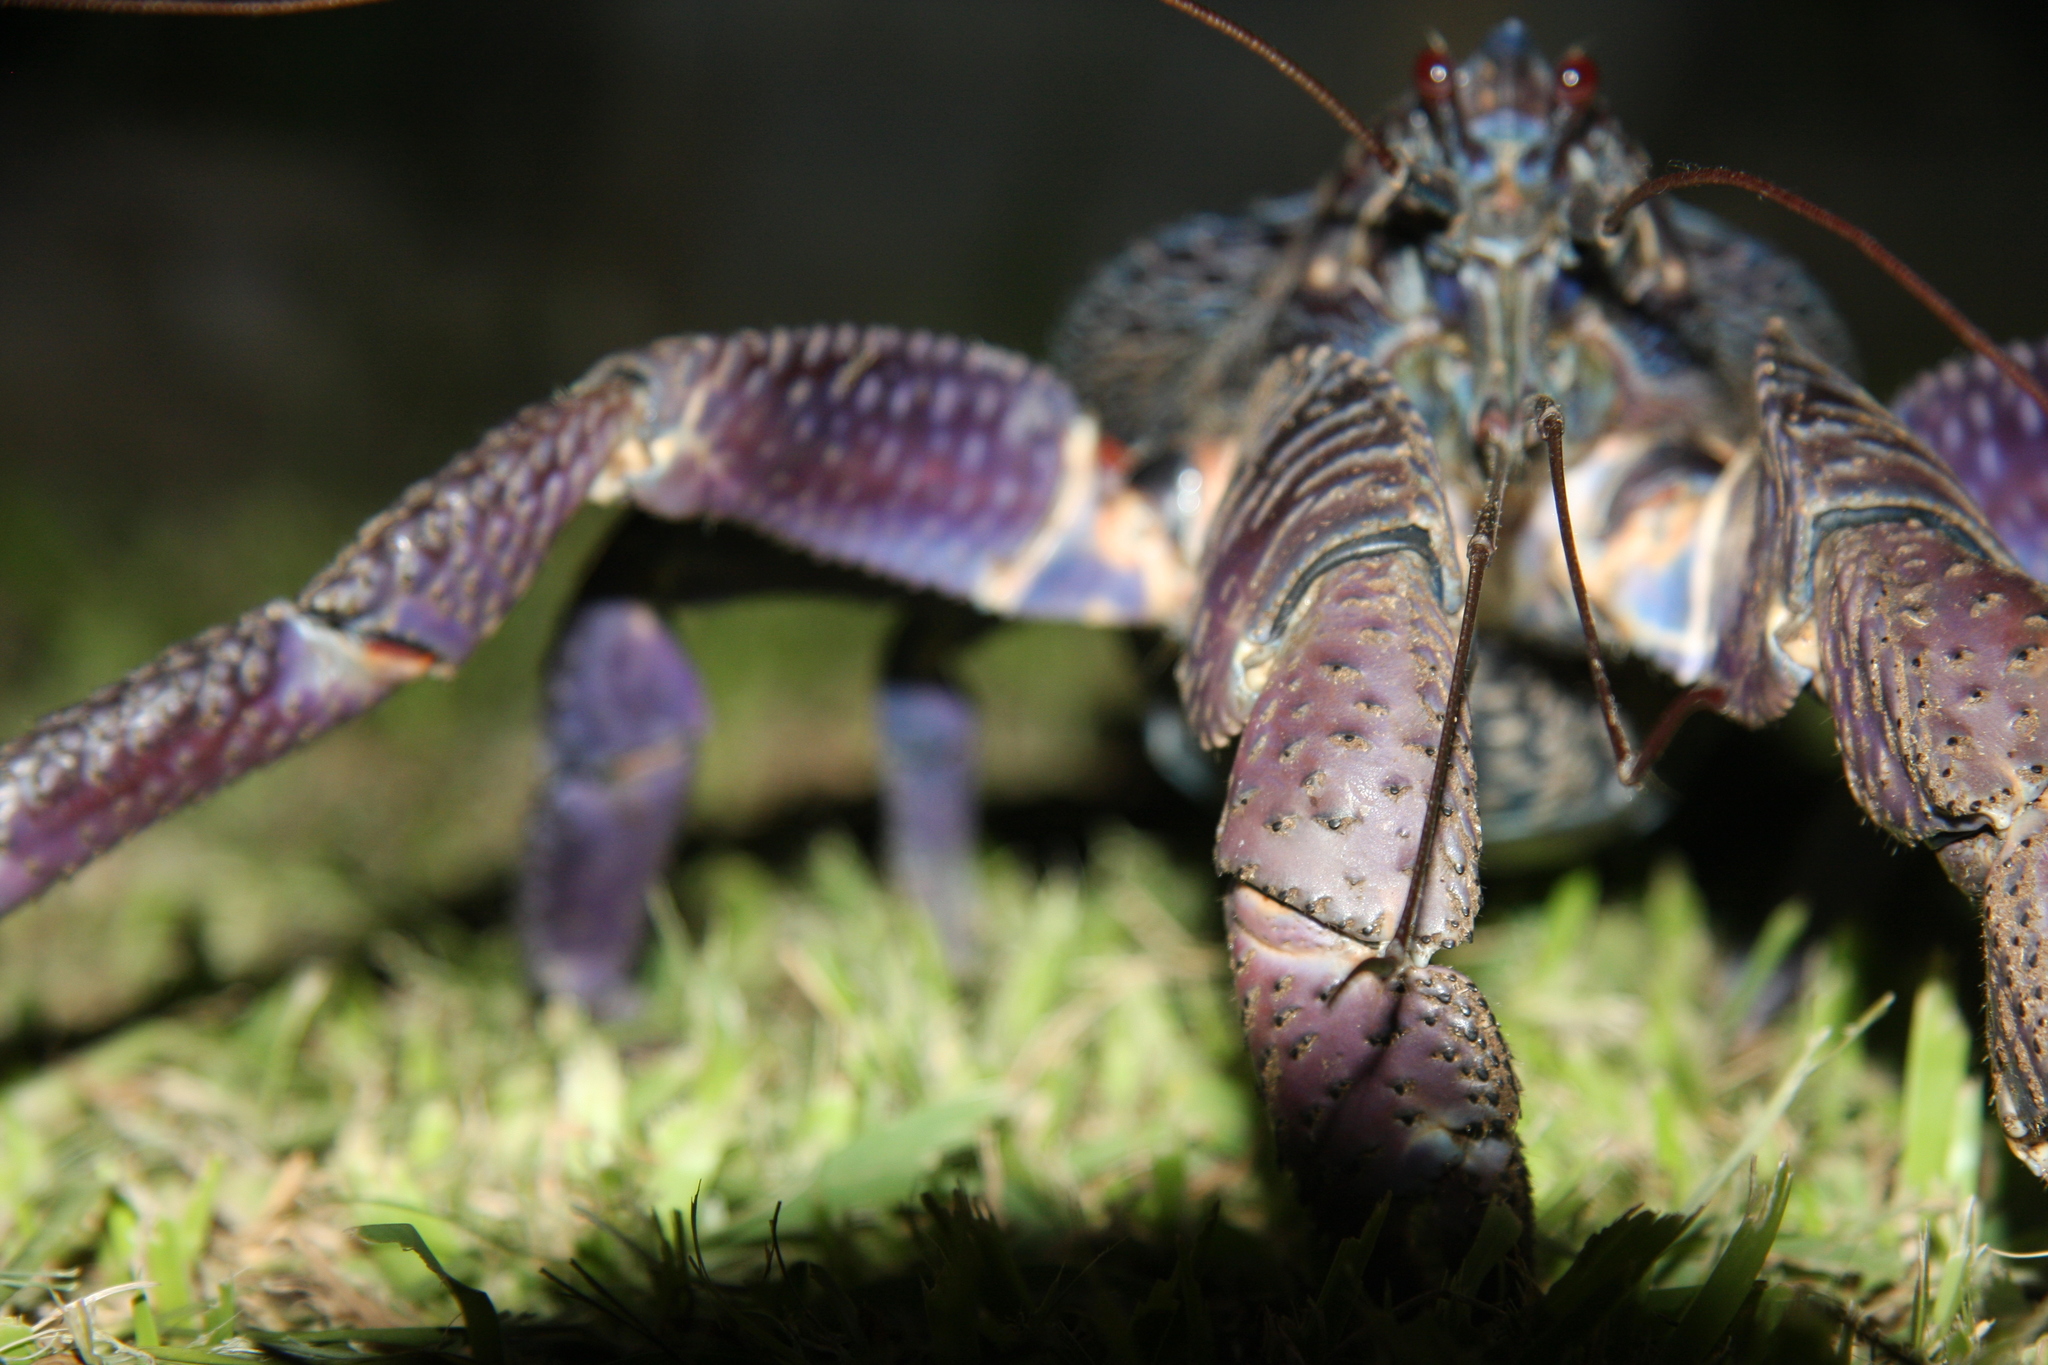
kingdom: Animalia
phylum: Arthropoda
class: Malacostraca
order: Decapoda
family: Coenobitidae
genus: Birgus
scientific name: Birgus latro
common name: Coconut crab
